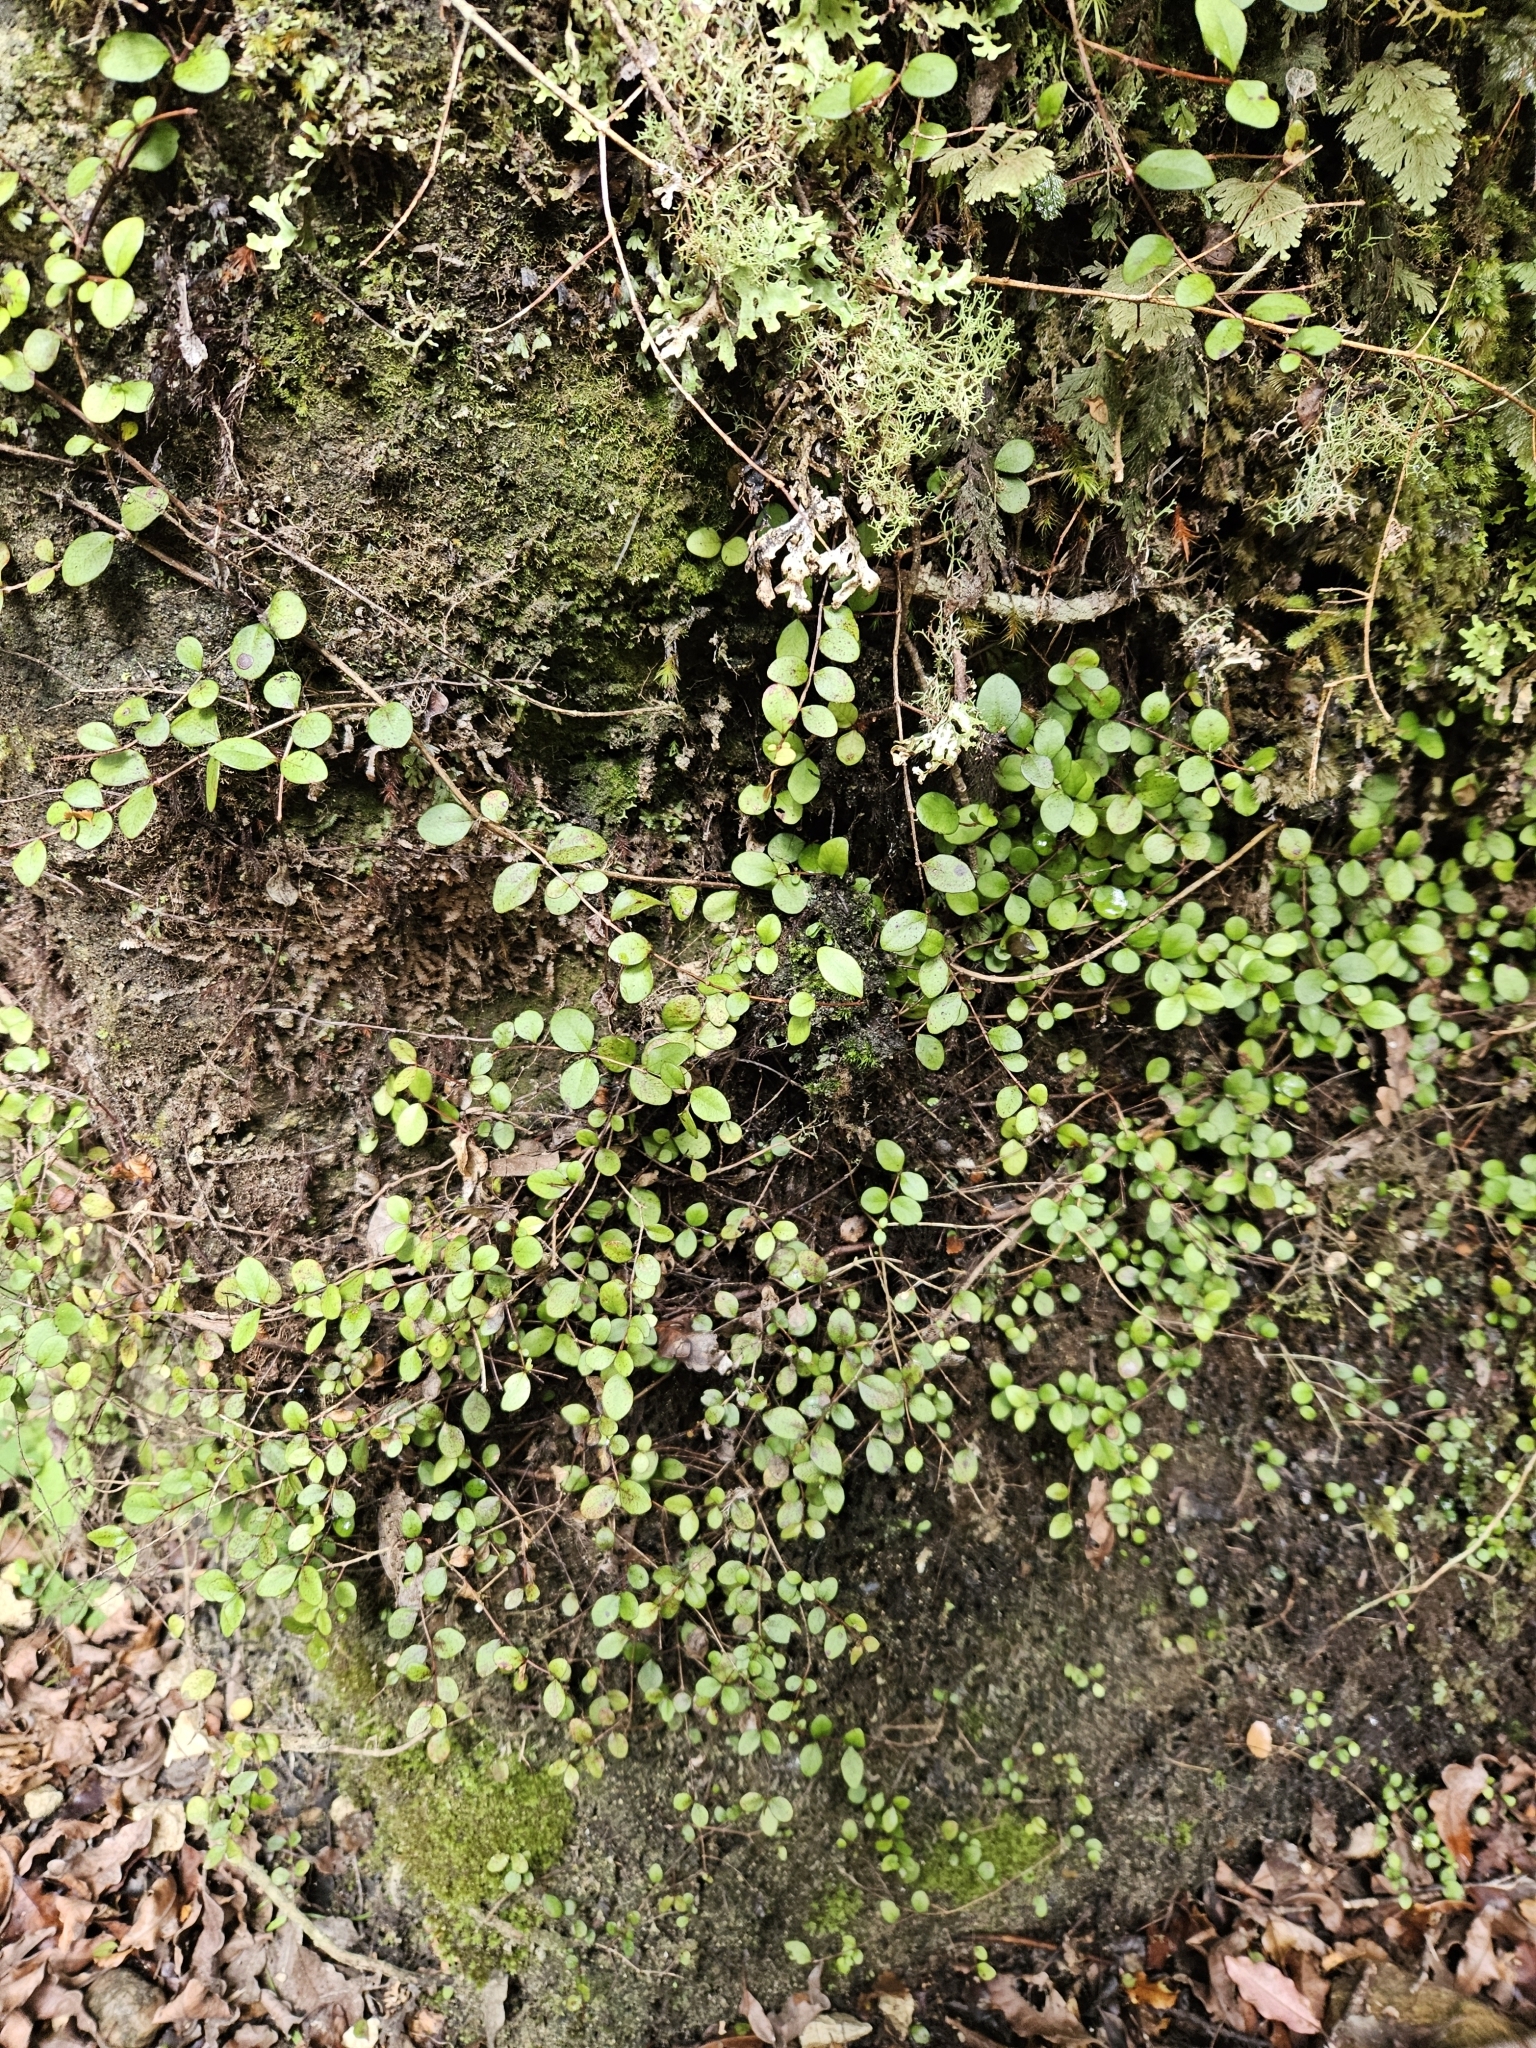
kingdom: Plantae
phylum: Tracheophyta
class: Magnoliopsida
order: Myrtales
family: Myrtaceae
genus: Neomyrtus
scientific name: Neomyrtus pedunculata
